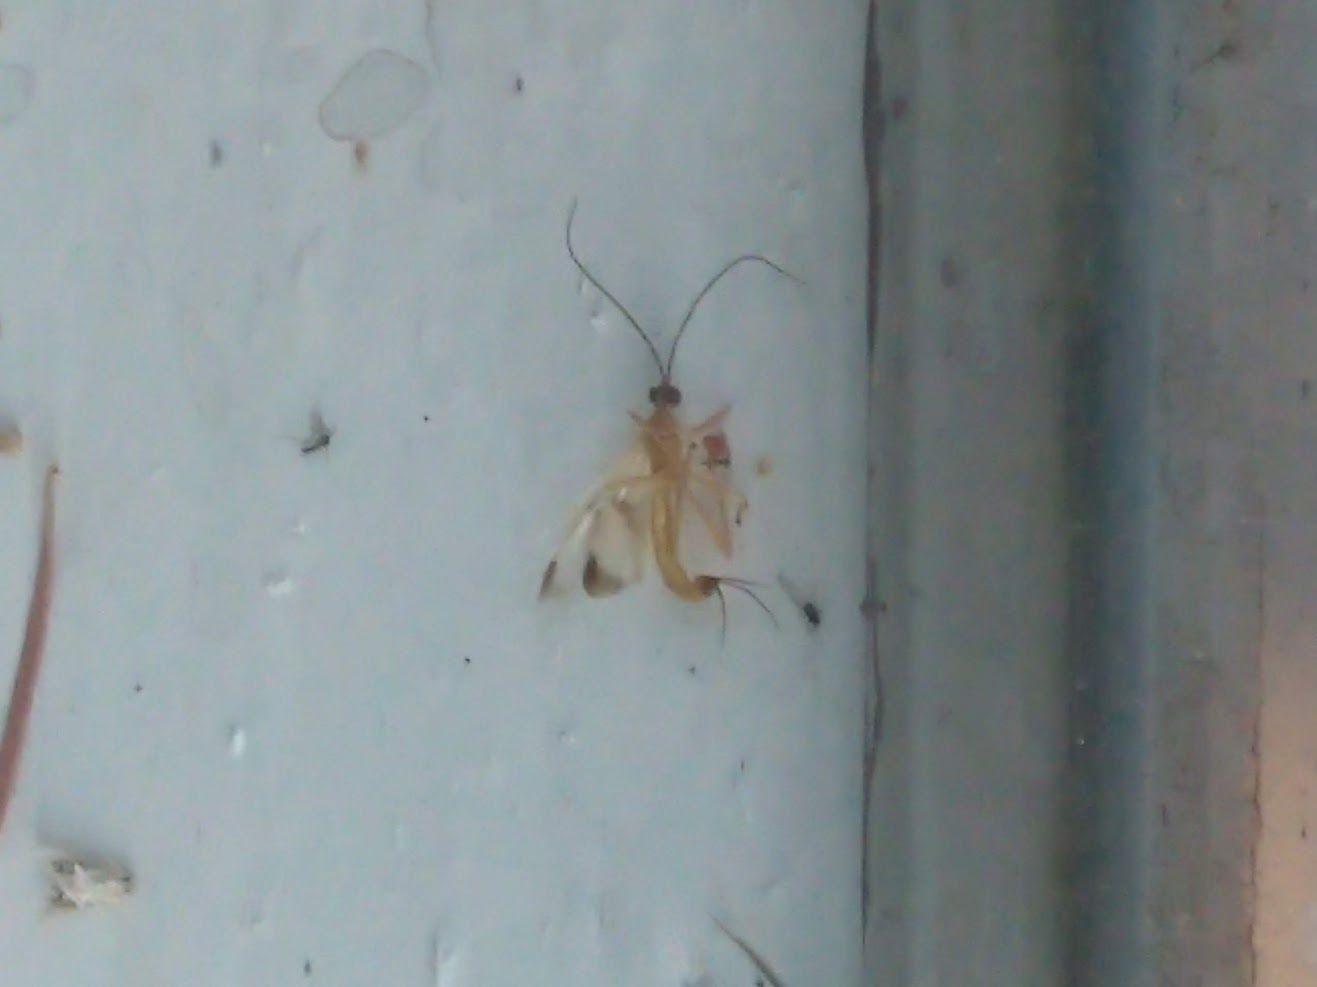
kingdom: Animalia
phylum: Arthropoda
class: Insecta
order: Hymenoptera
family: Ichneumonidae
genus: Acrotaphus
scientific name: Acrotaphus wiltii
